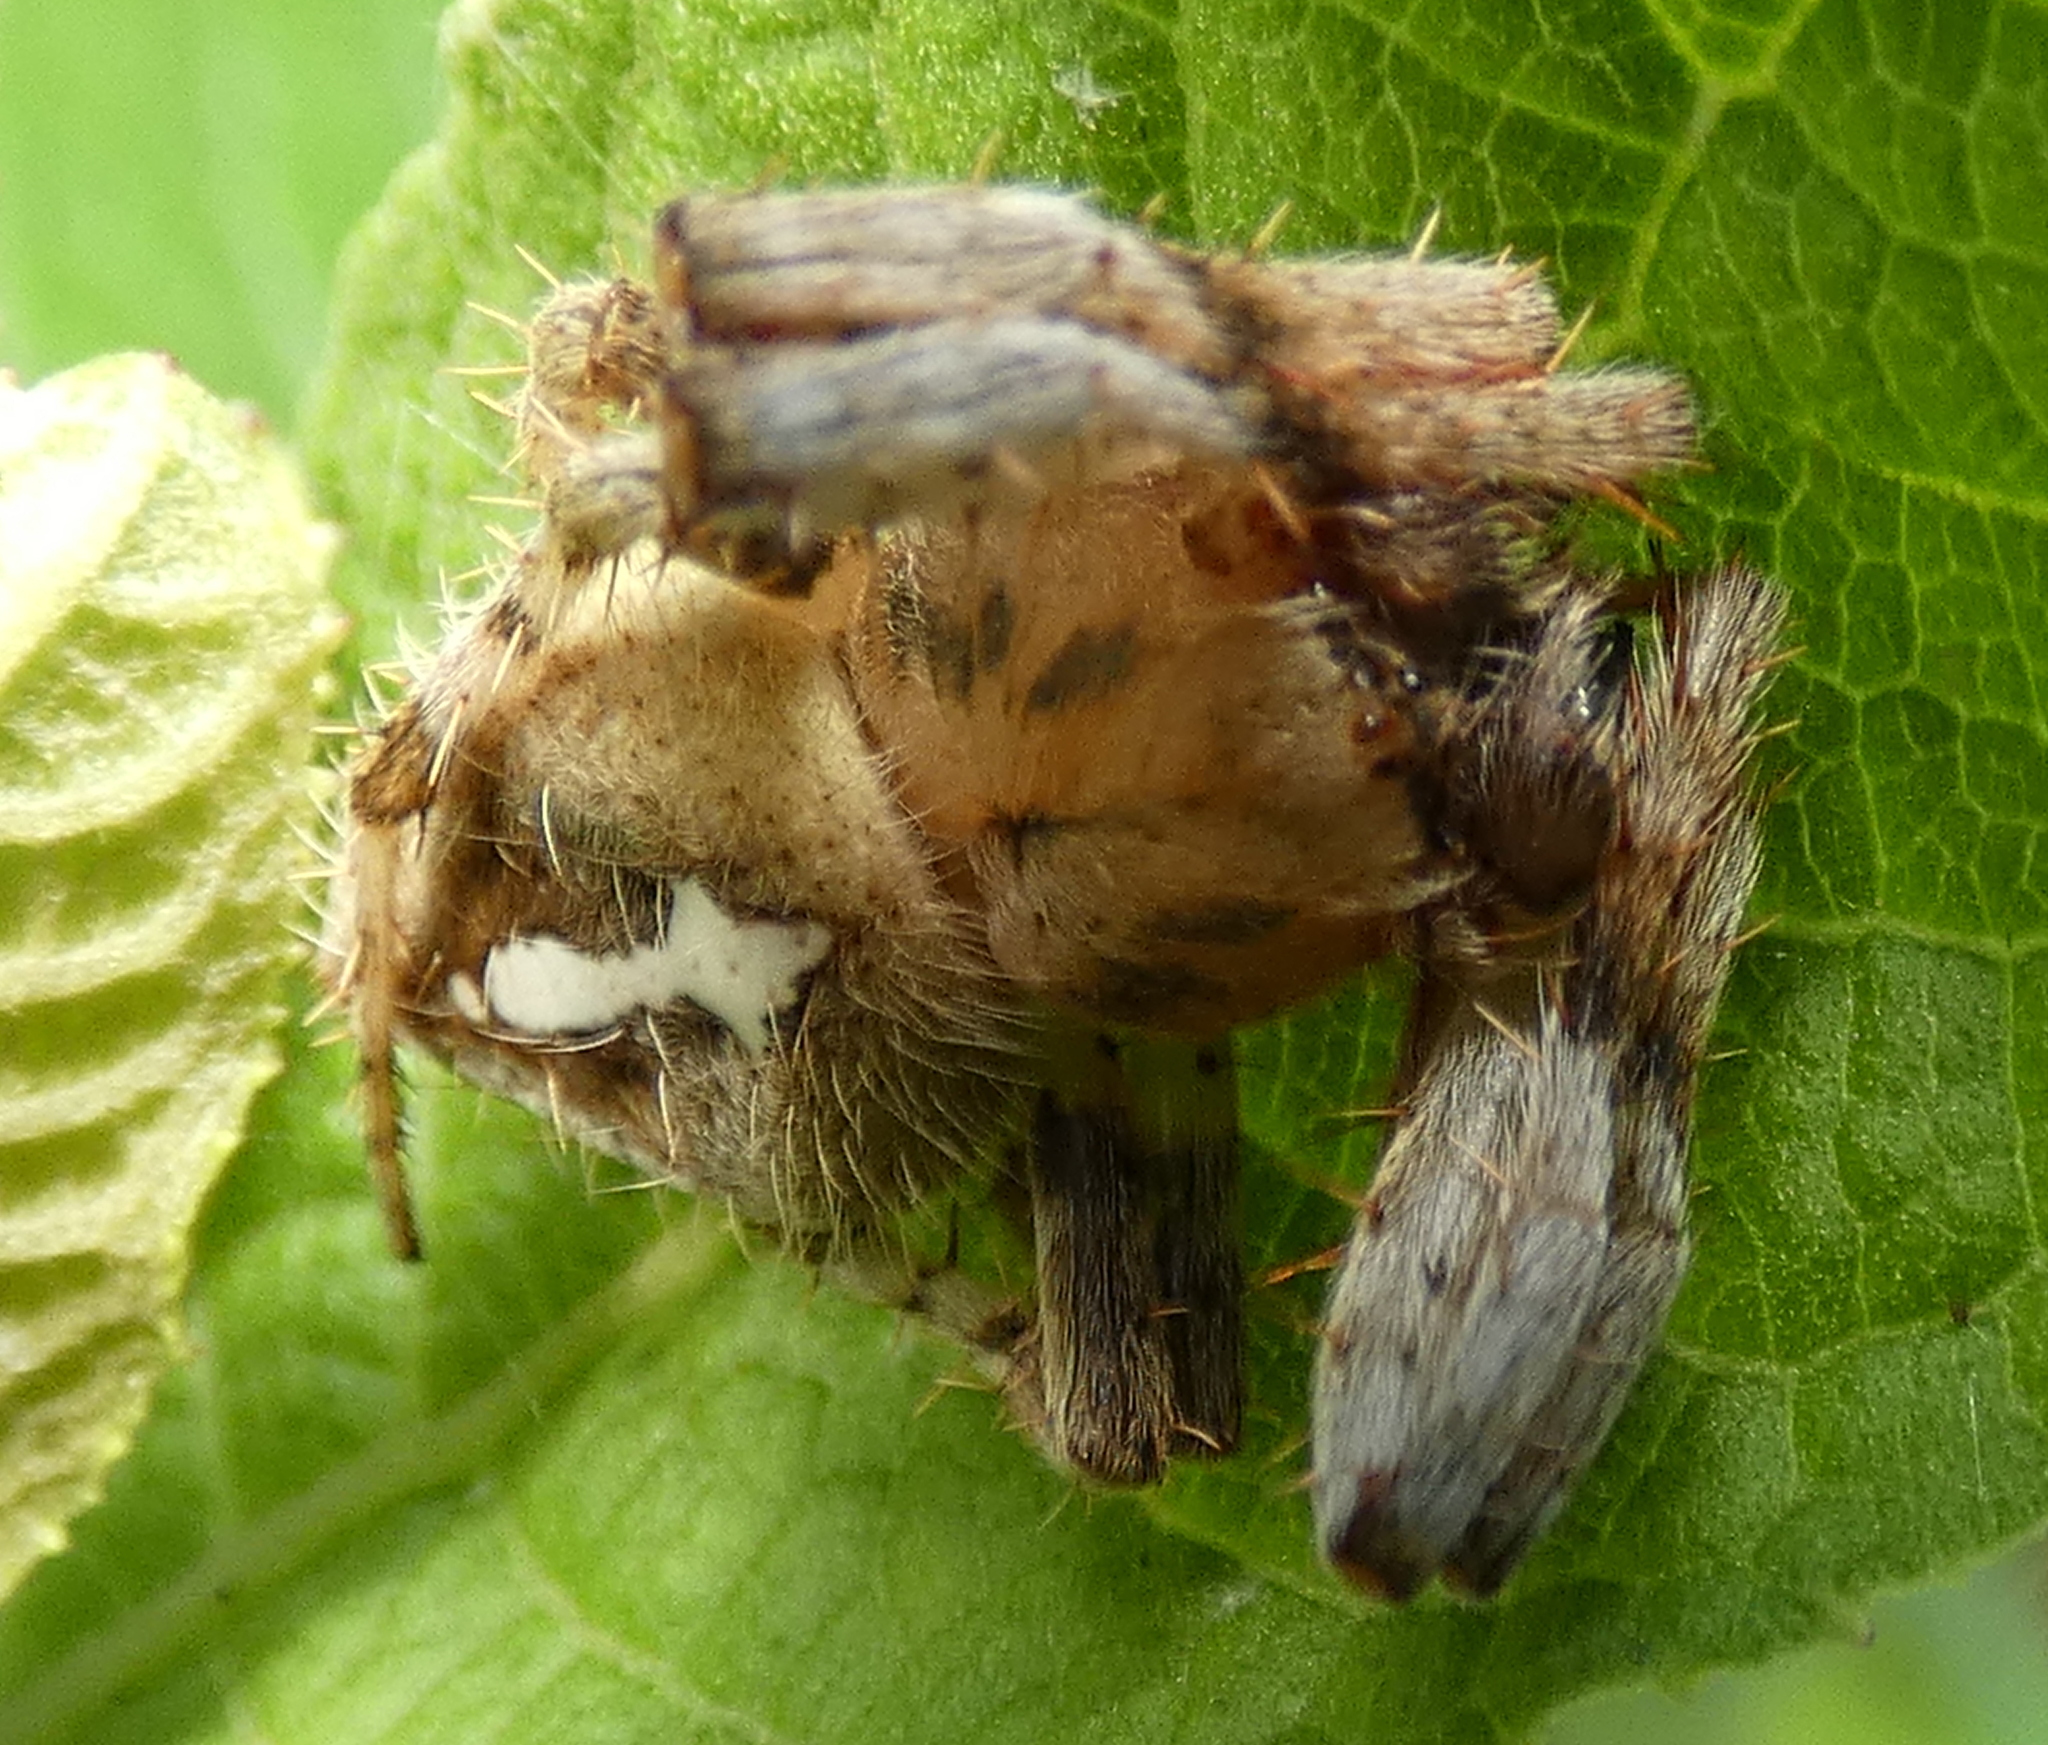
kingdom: Animalia
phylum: Arthropoda
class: Arachnida
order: Araneae
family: Araneidae
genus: Eriophora
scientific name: Eriophora edax
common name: Orb weavers
